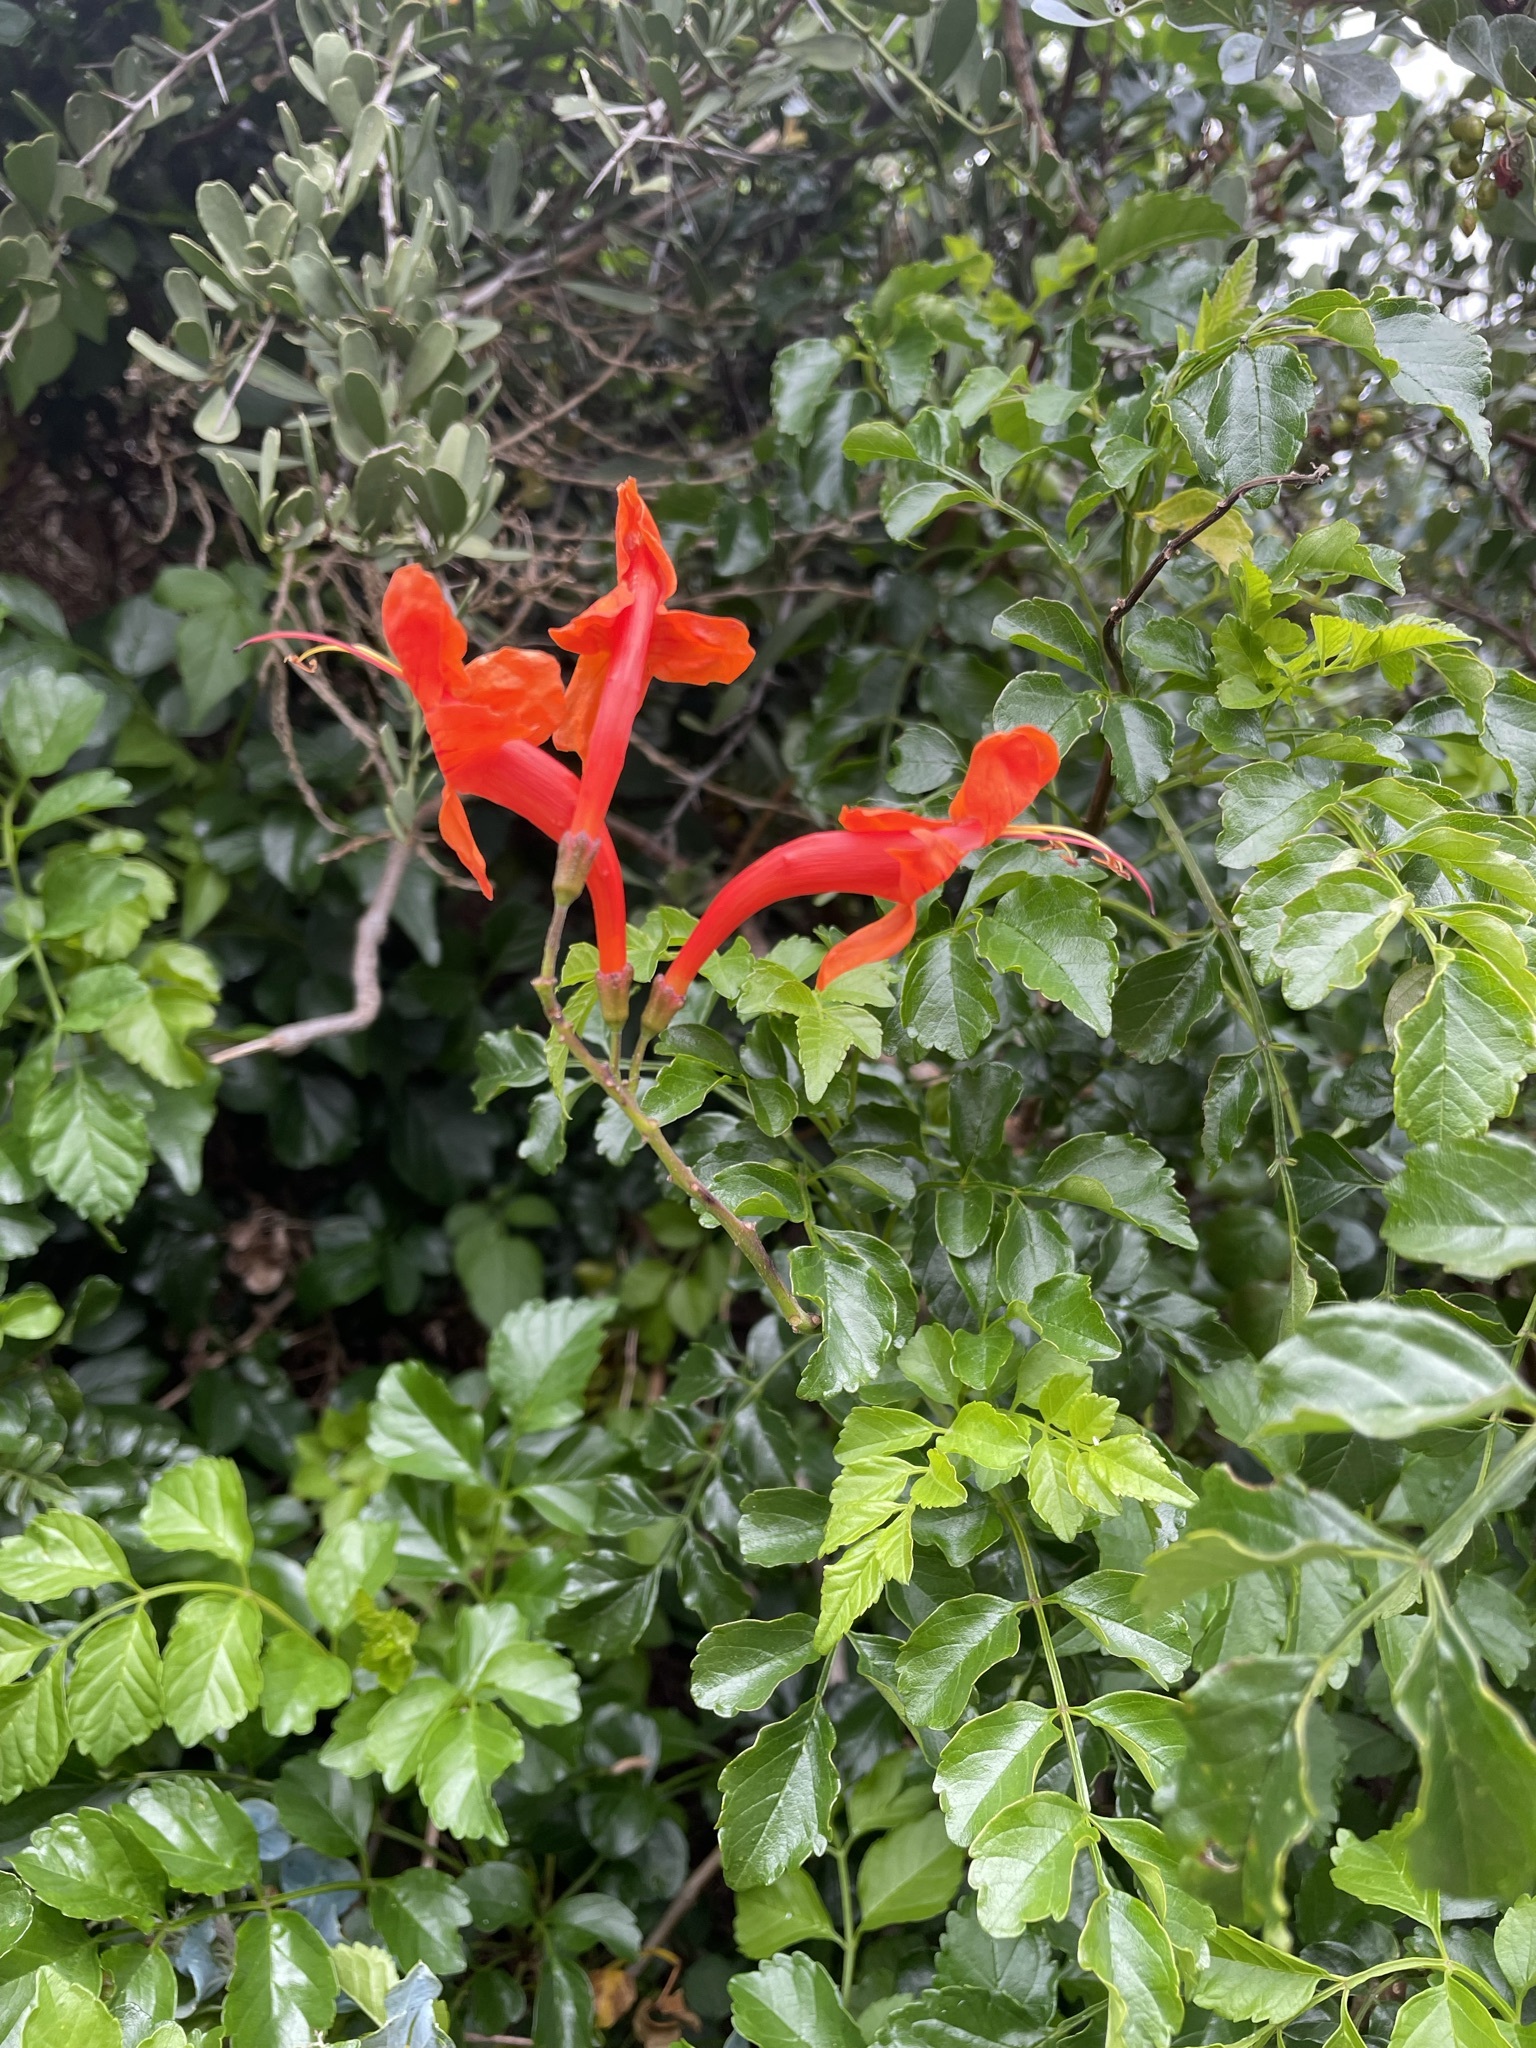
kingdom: Plantae
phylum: Tracheophyta
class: Magnoliopsida
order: Lamiales
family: Bignoniaceae
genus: Tecomaria
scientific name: Tecomaria capensis
